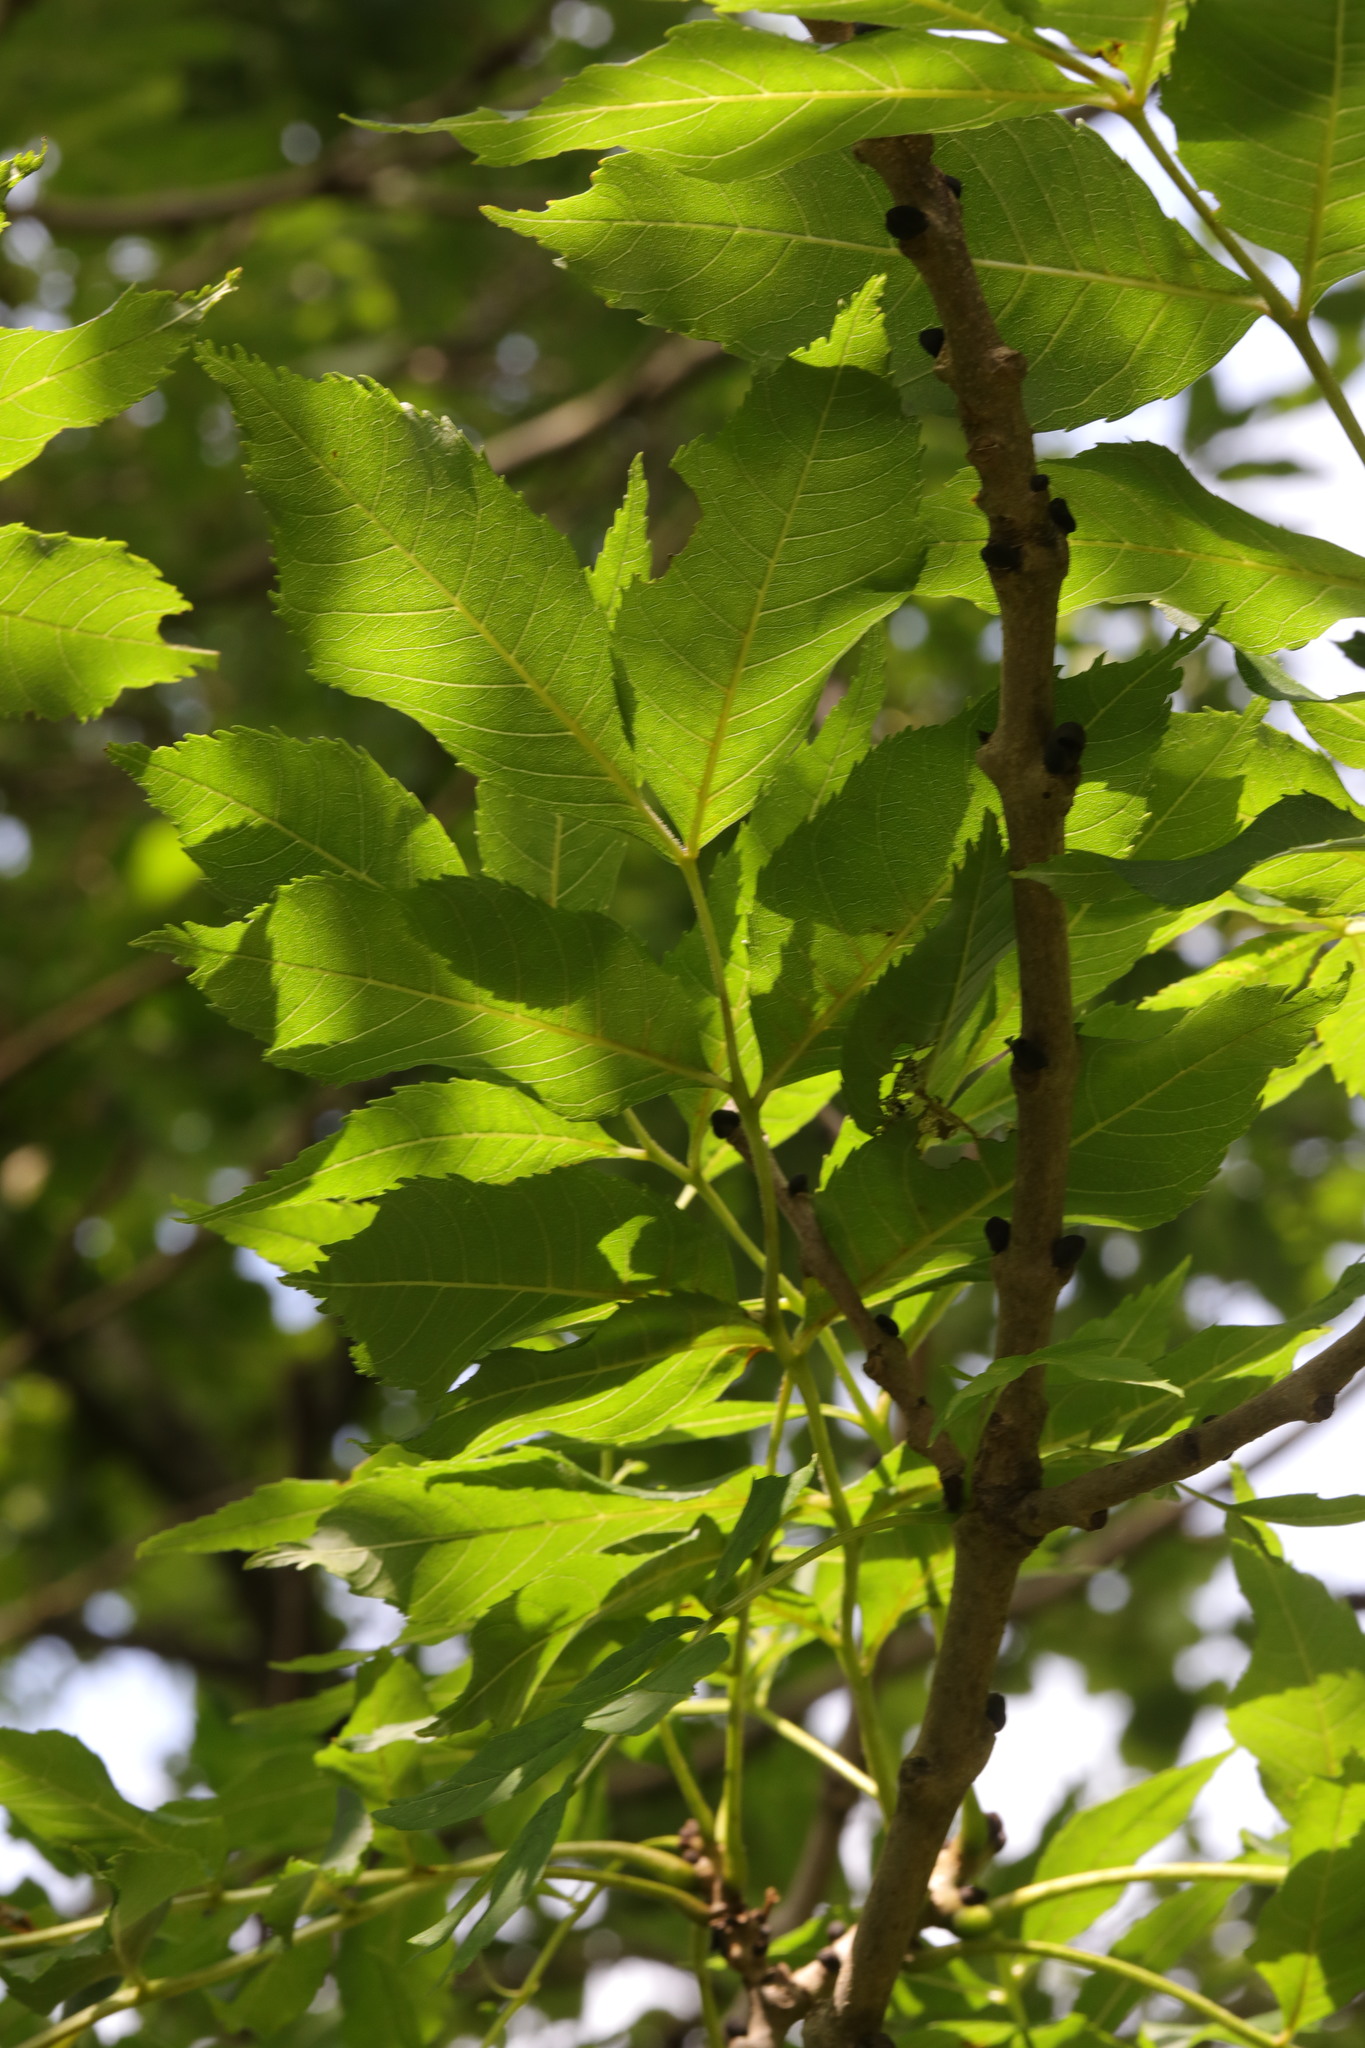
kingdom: Plantae
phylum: Tracheophyta
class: Magnoliopsida
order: Lamiales
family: Oleaceae
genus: Fraxinus
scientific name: Fraxinus excelsior
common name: European ash
